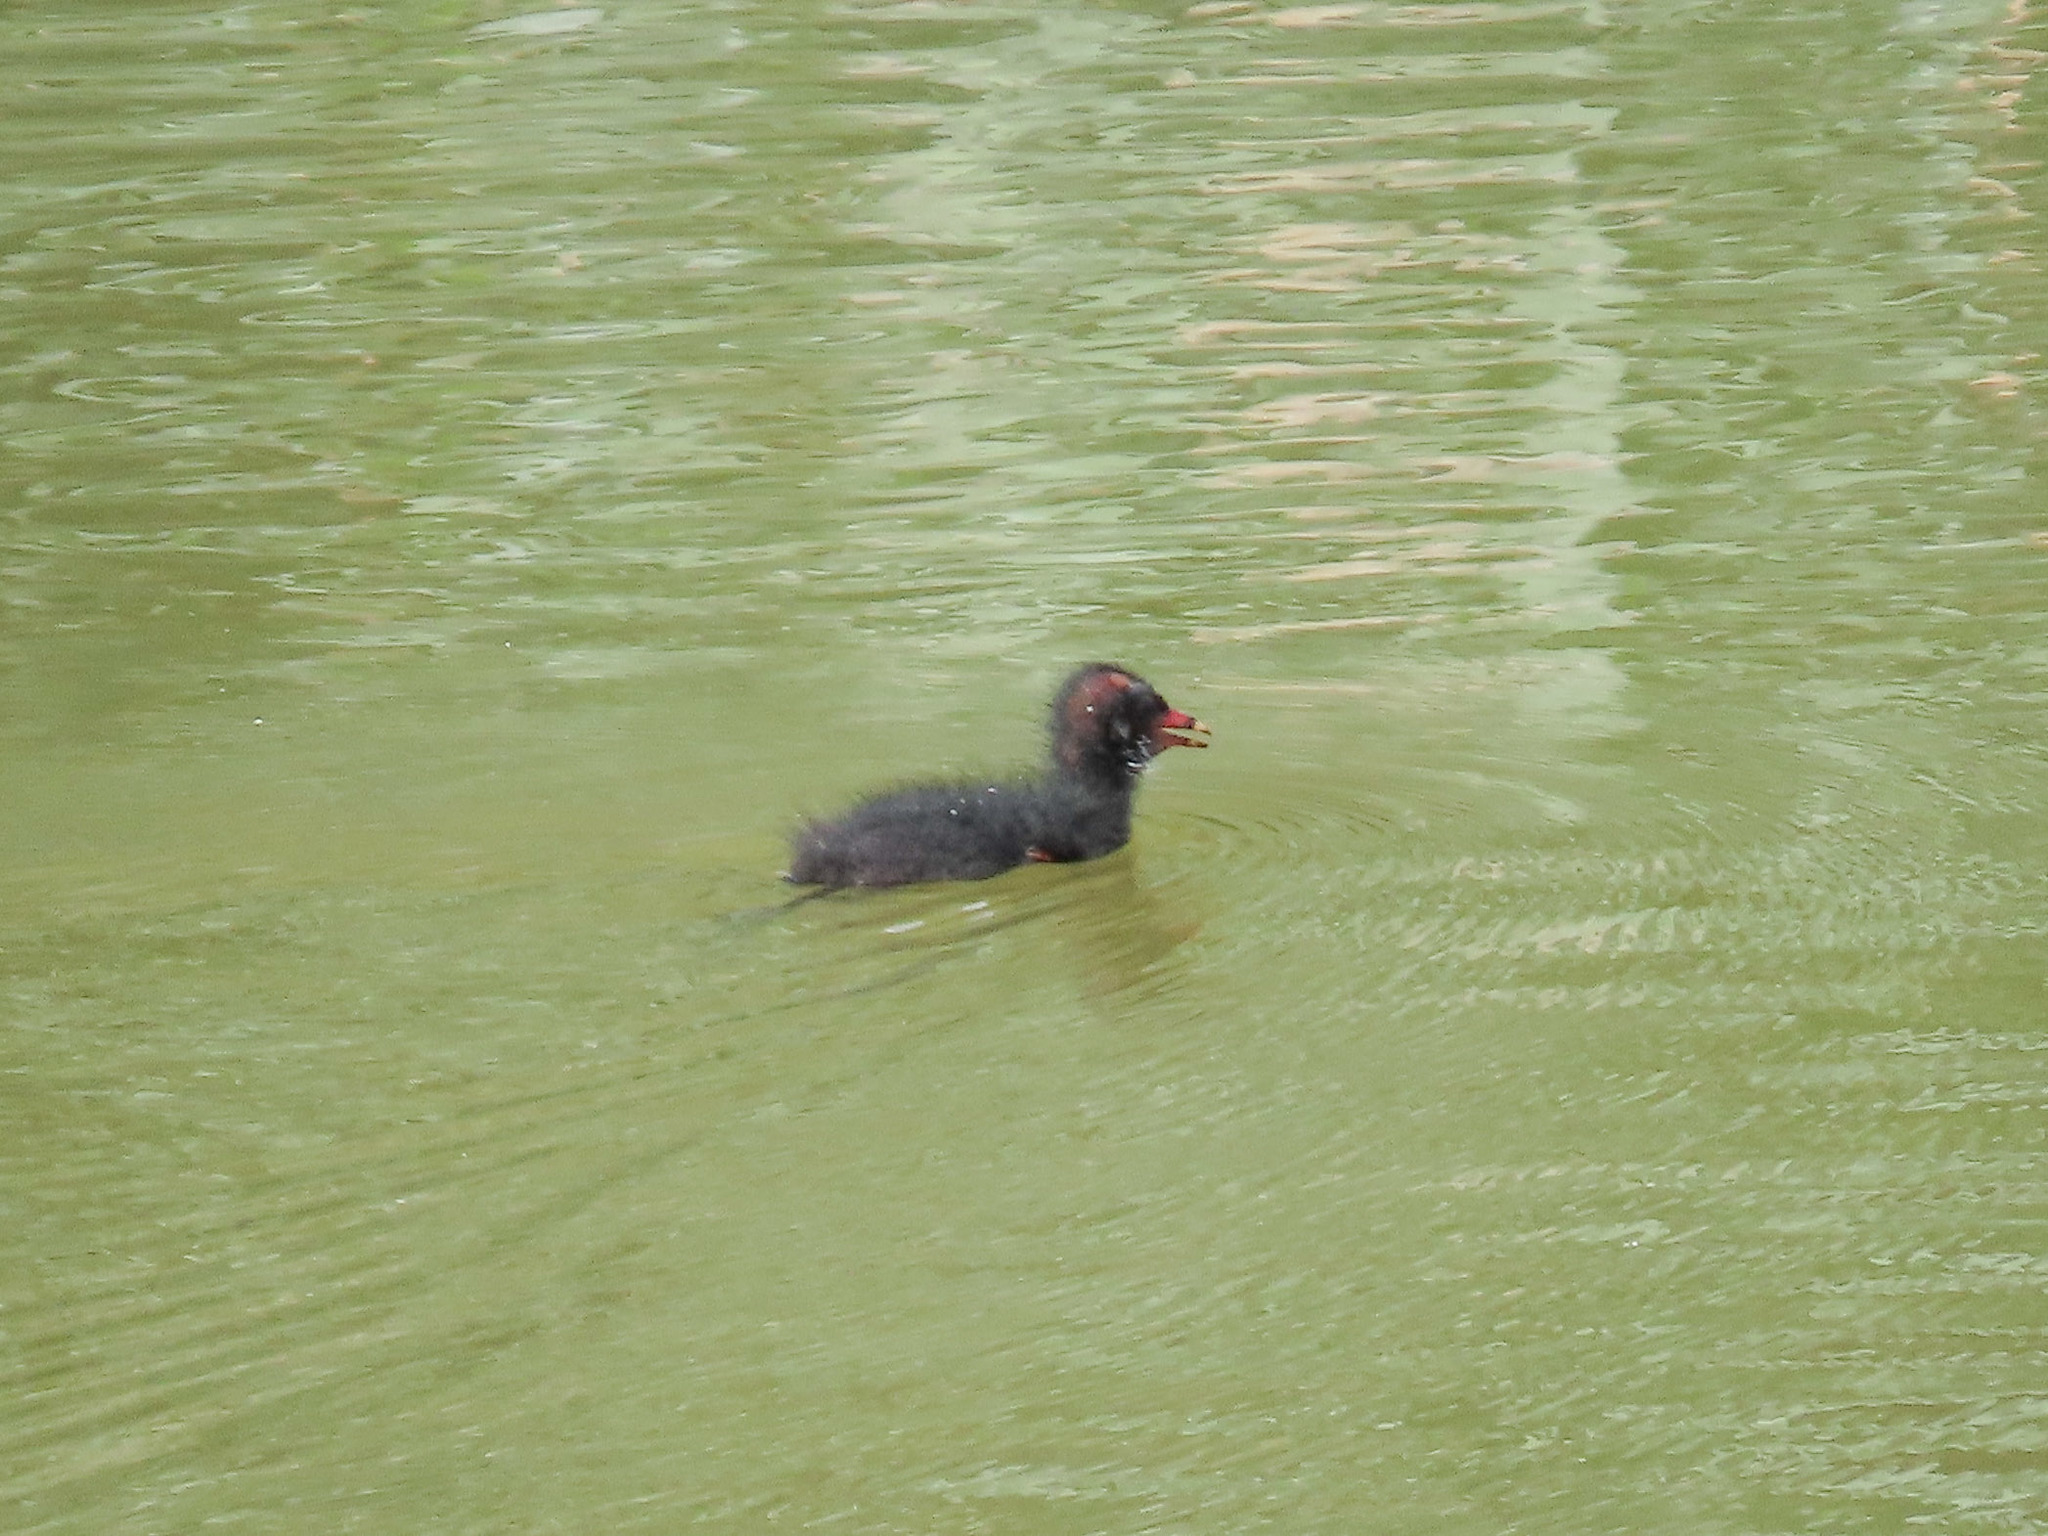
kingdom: Animalia
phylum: Chordata
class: Aves
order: Gruiformes
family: Rallidae
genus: Fulica
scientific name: Fulica atra
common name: Eurasian coot
